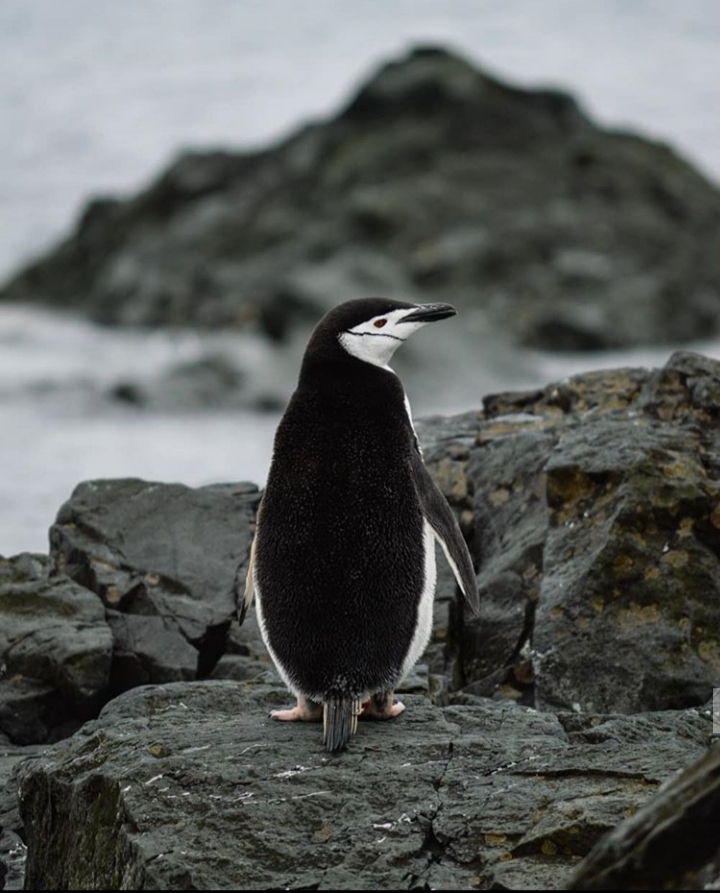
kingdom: Animalia
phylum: Chordata
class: Aves
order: Sphenisciformes
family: Spheniscidae
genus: Pygoscelis
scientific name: Pygoscelis antarcticus
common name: Chinstrap penguin
